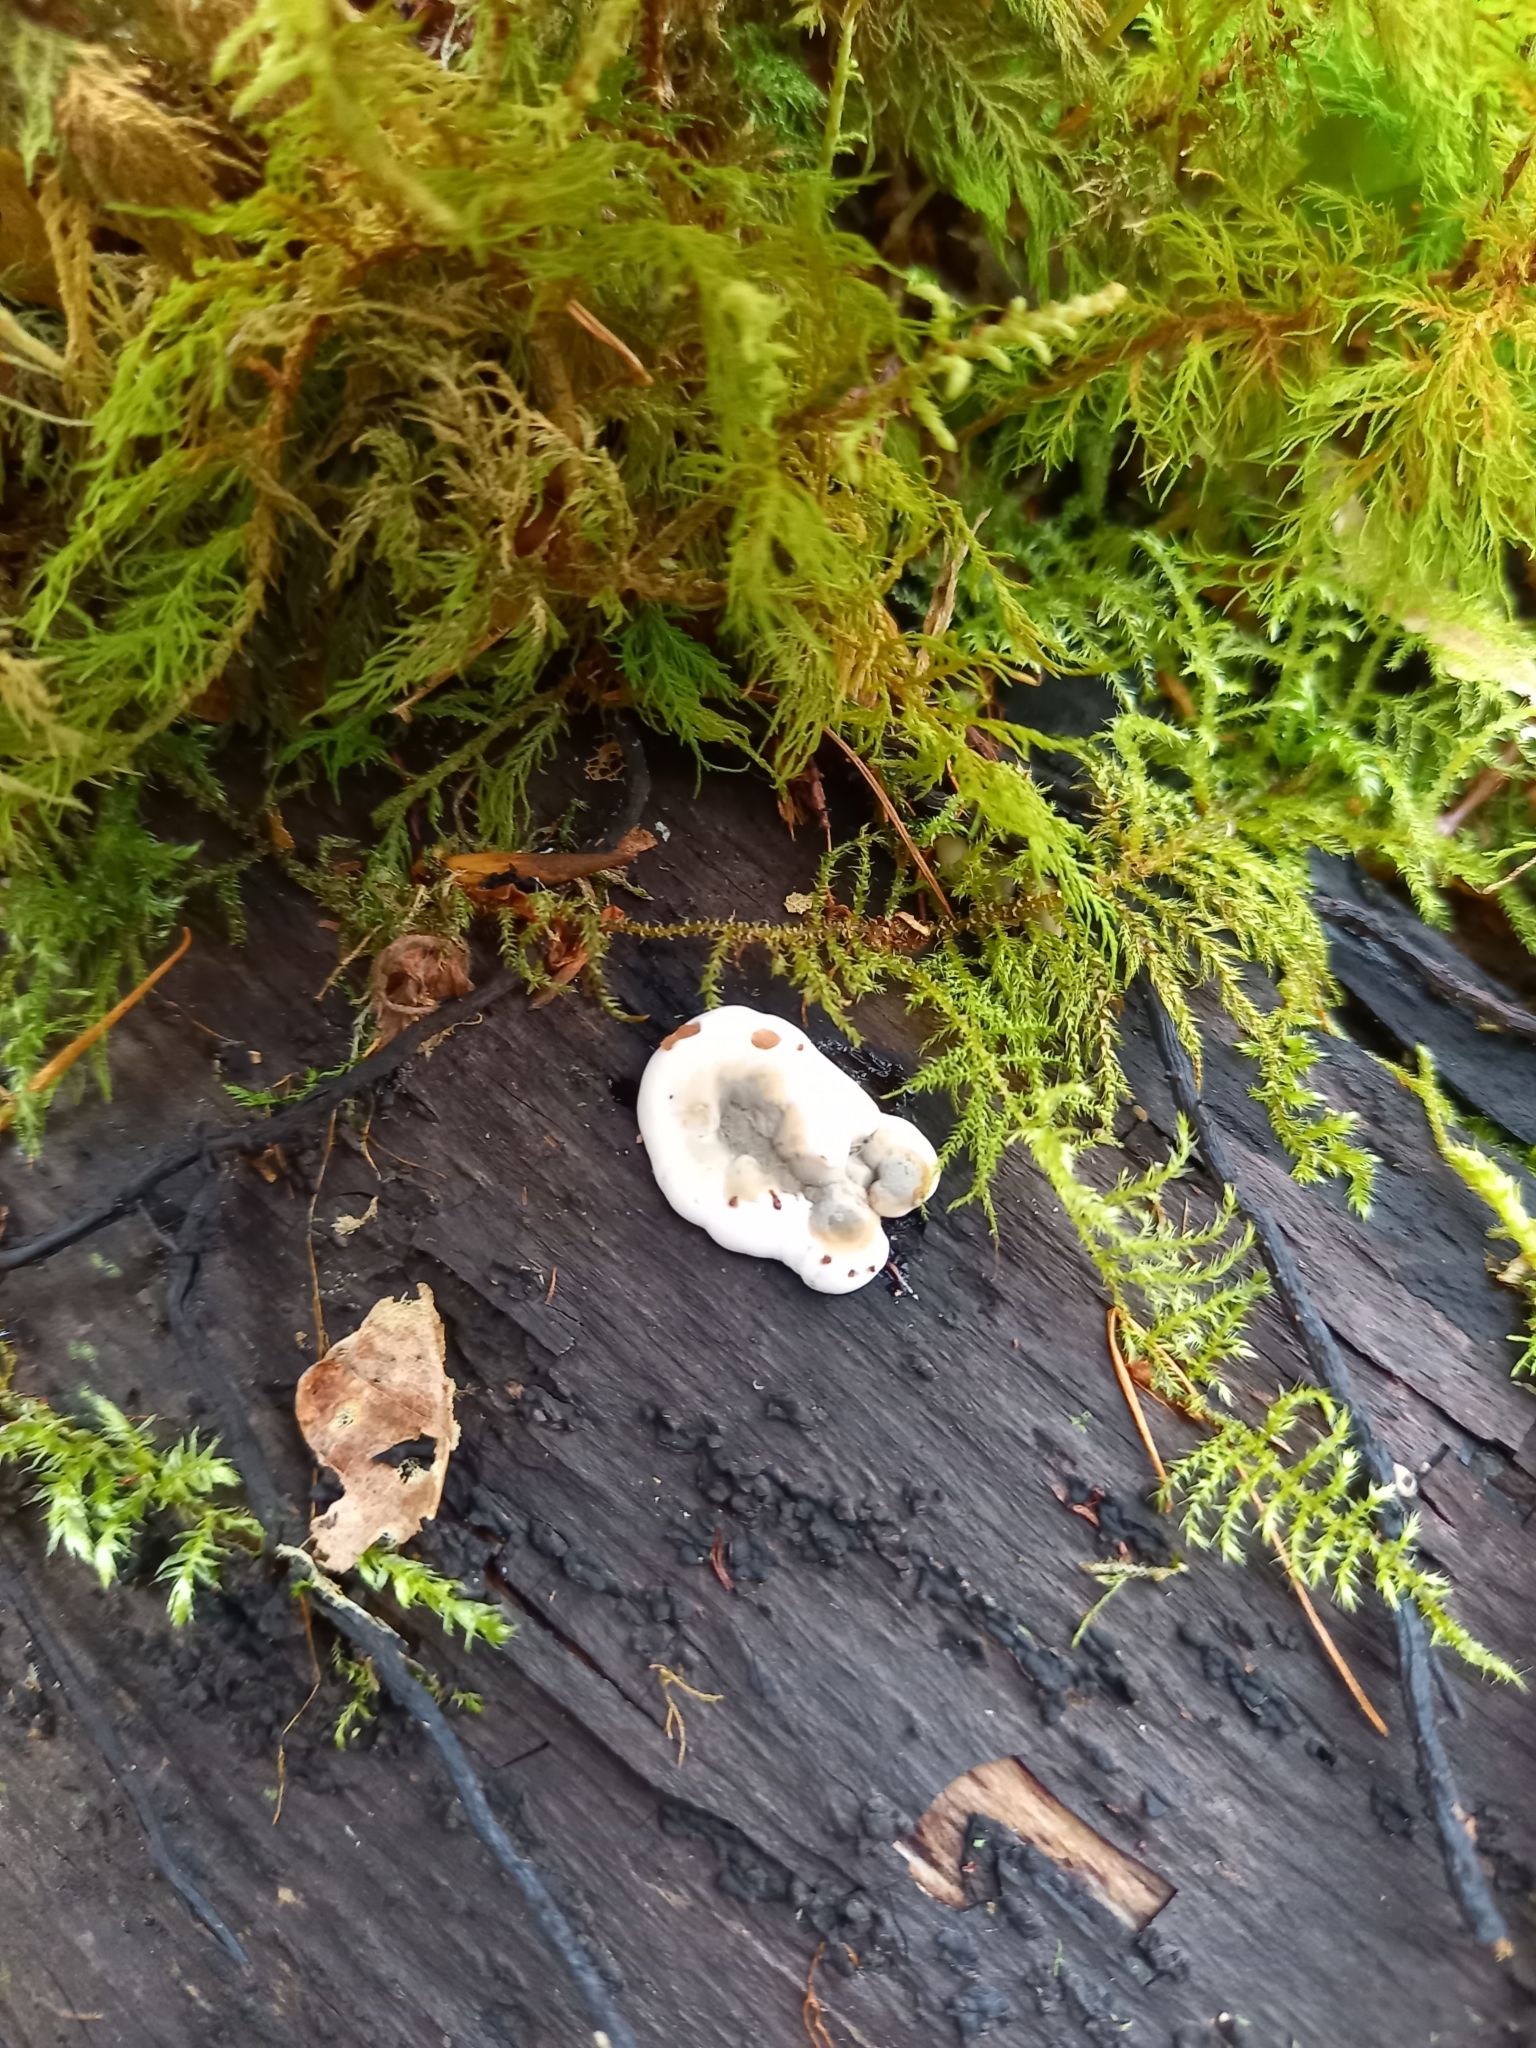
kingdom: Fungi
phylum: Ascomycota
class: Sordariomycetes
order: Xylariales
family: Xylariaceae
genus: Kretzschmaria
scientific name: Kretzschmaria deusta
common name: Brittle cinder
